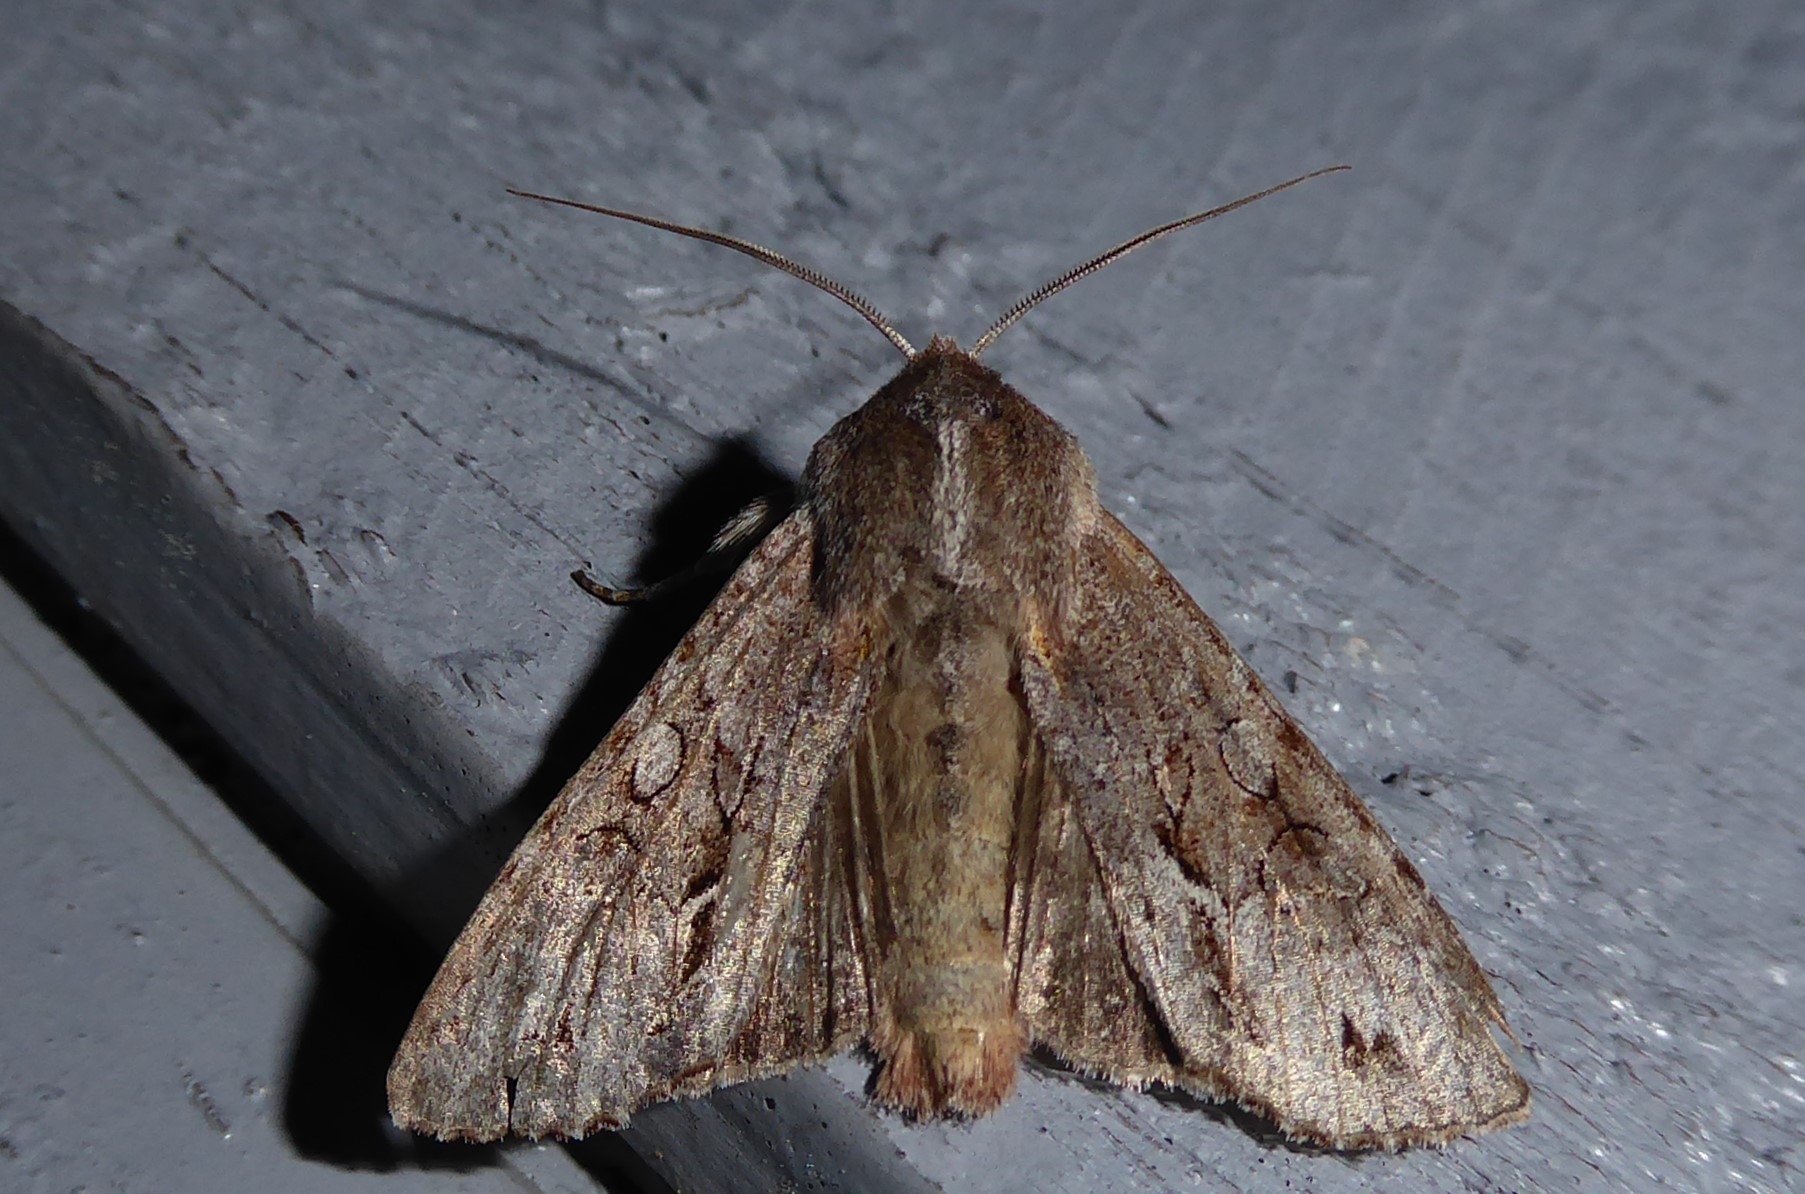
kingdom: Animalia
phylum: Arthropoda
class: Insecta
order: Lepidoptera
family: Noctuidae
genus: Ichneutica
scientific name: Ichneutica
